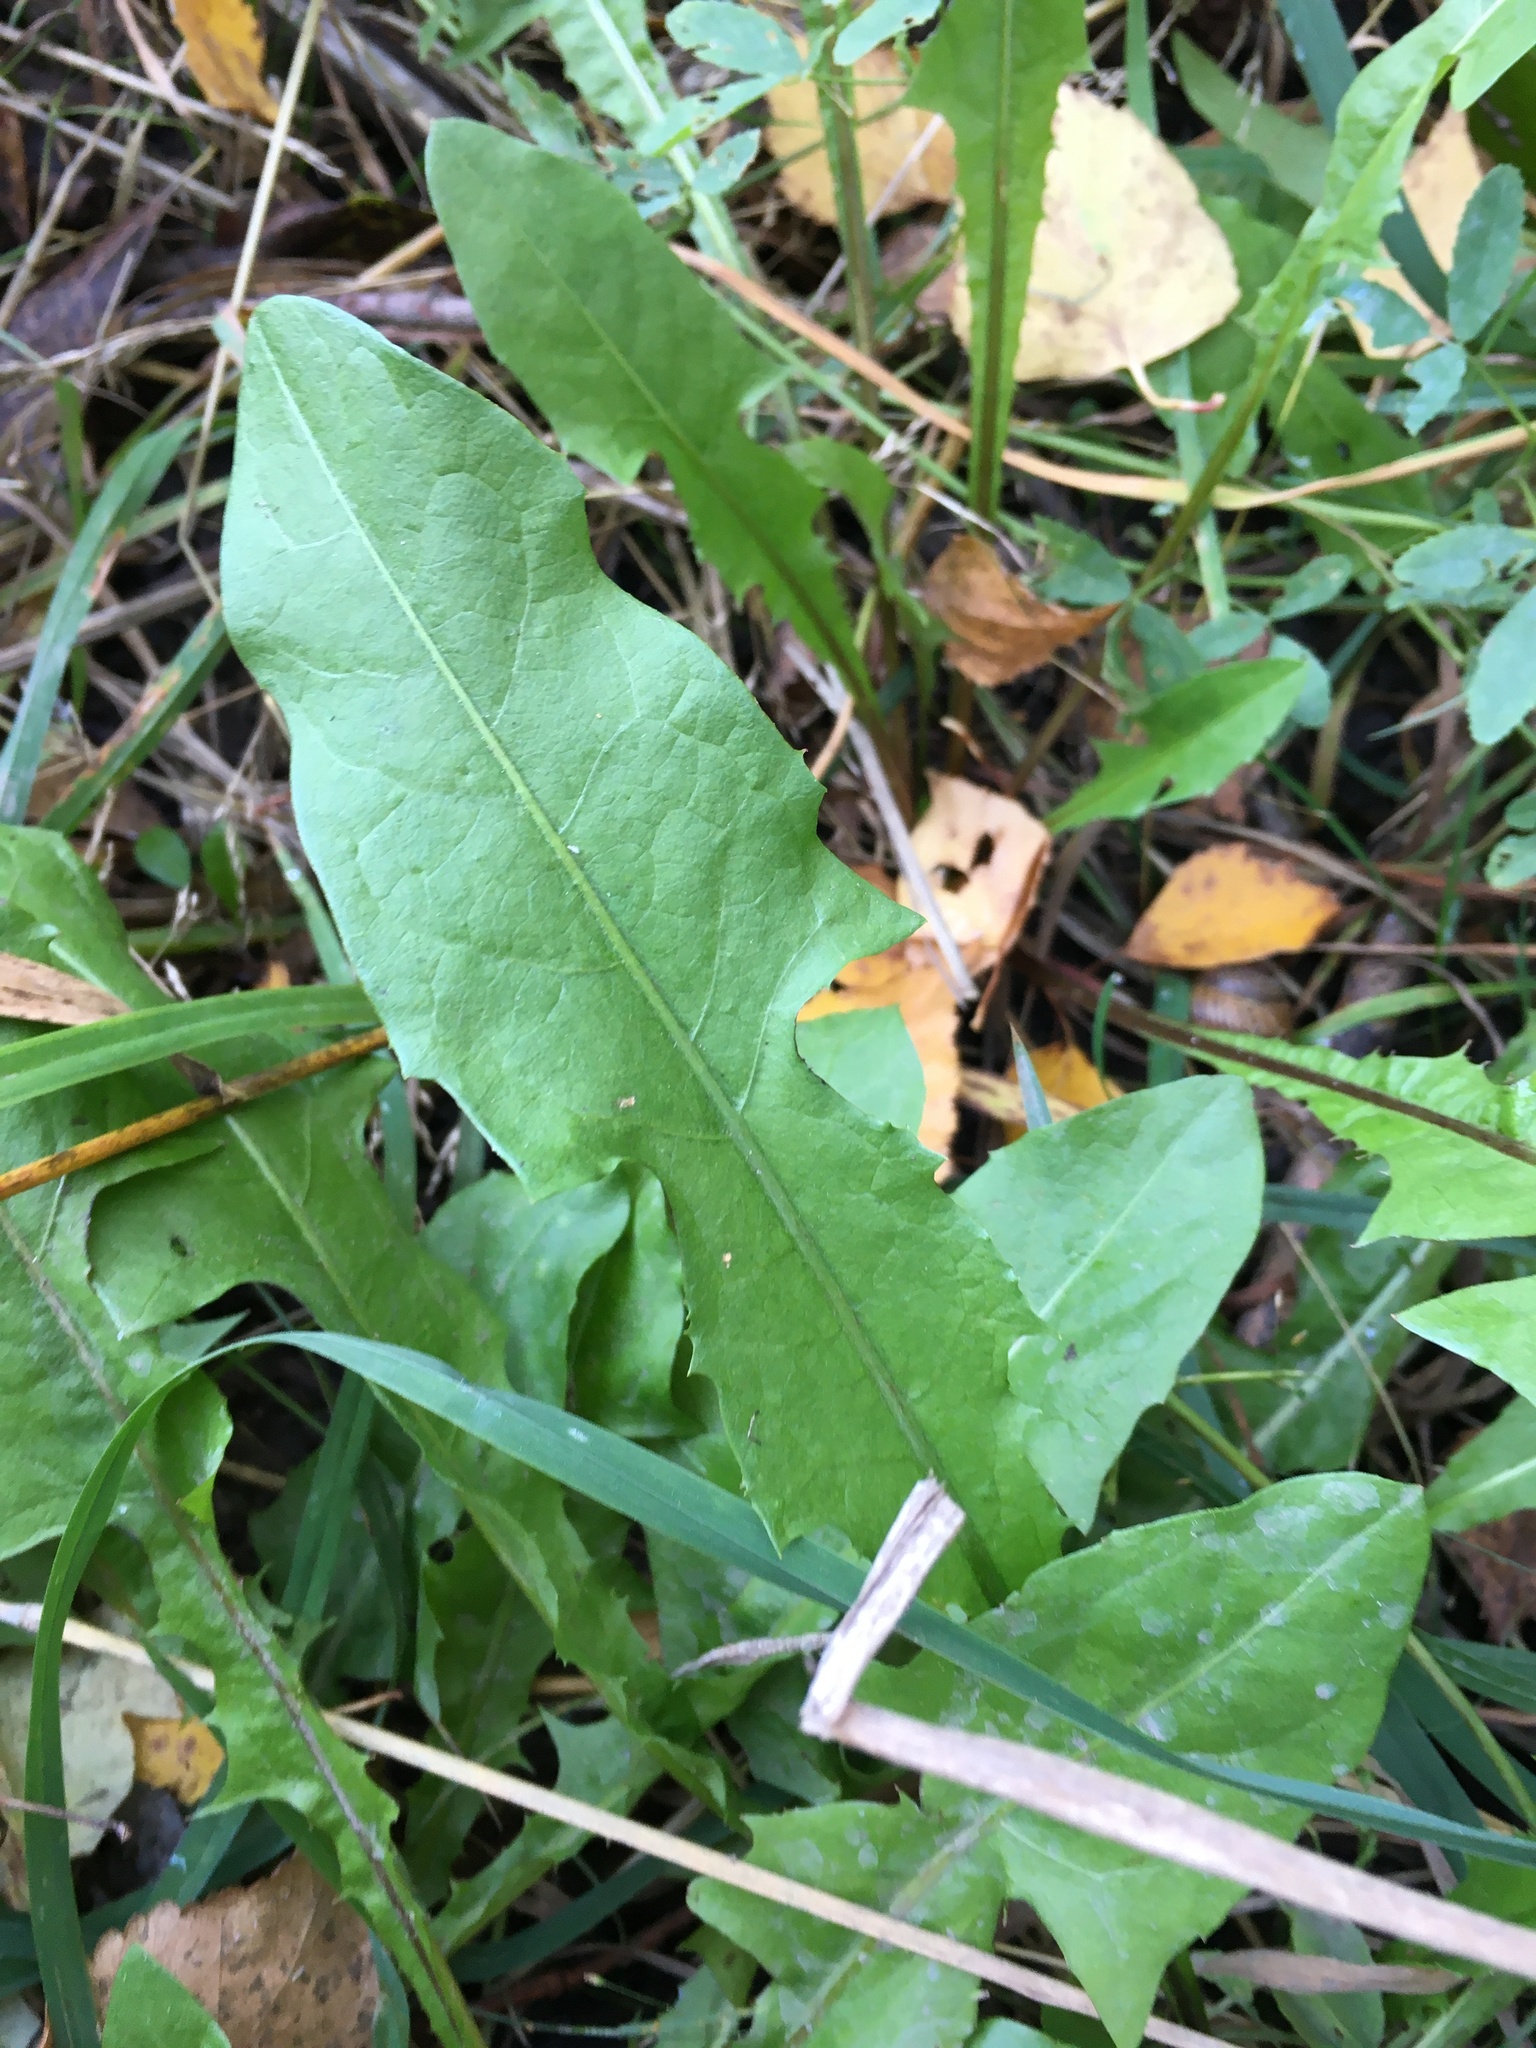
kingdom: Plantae
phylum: Tracheophyta
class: Magnoliopsida
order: Asterales
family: Asteraceae
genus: Taraxacum
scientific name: Taraxacum officinale
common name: Common dandelion
